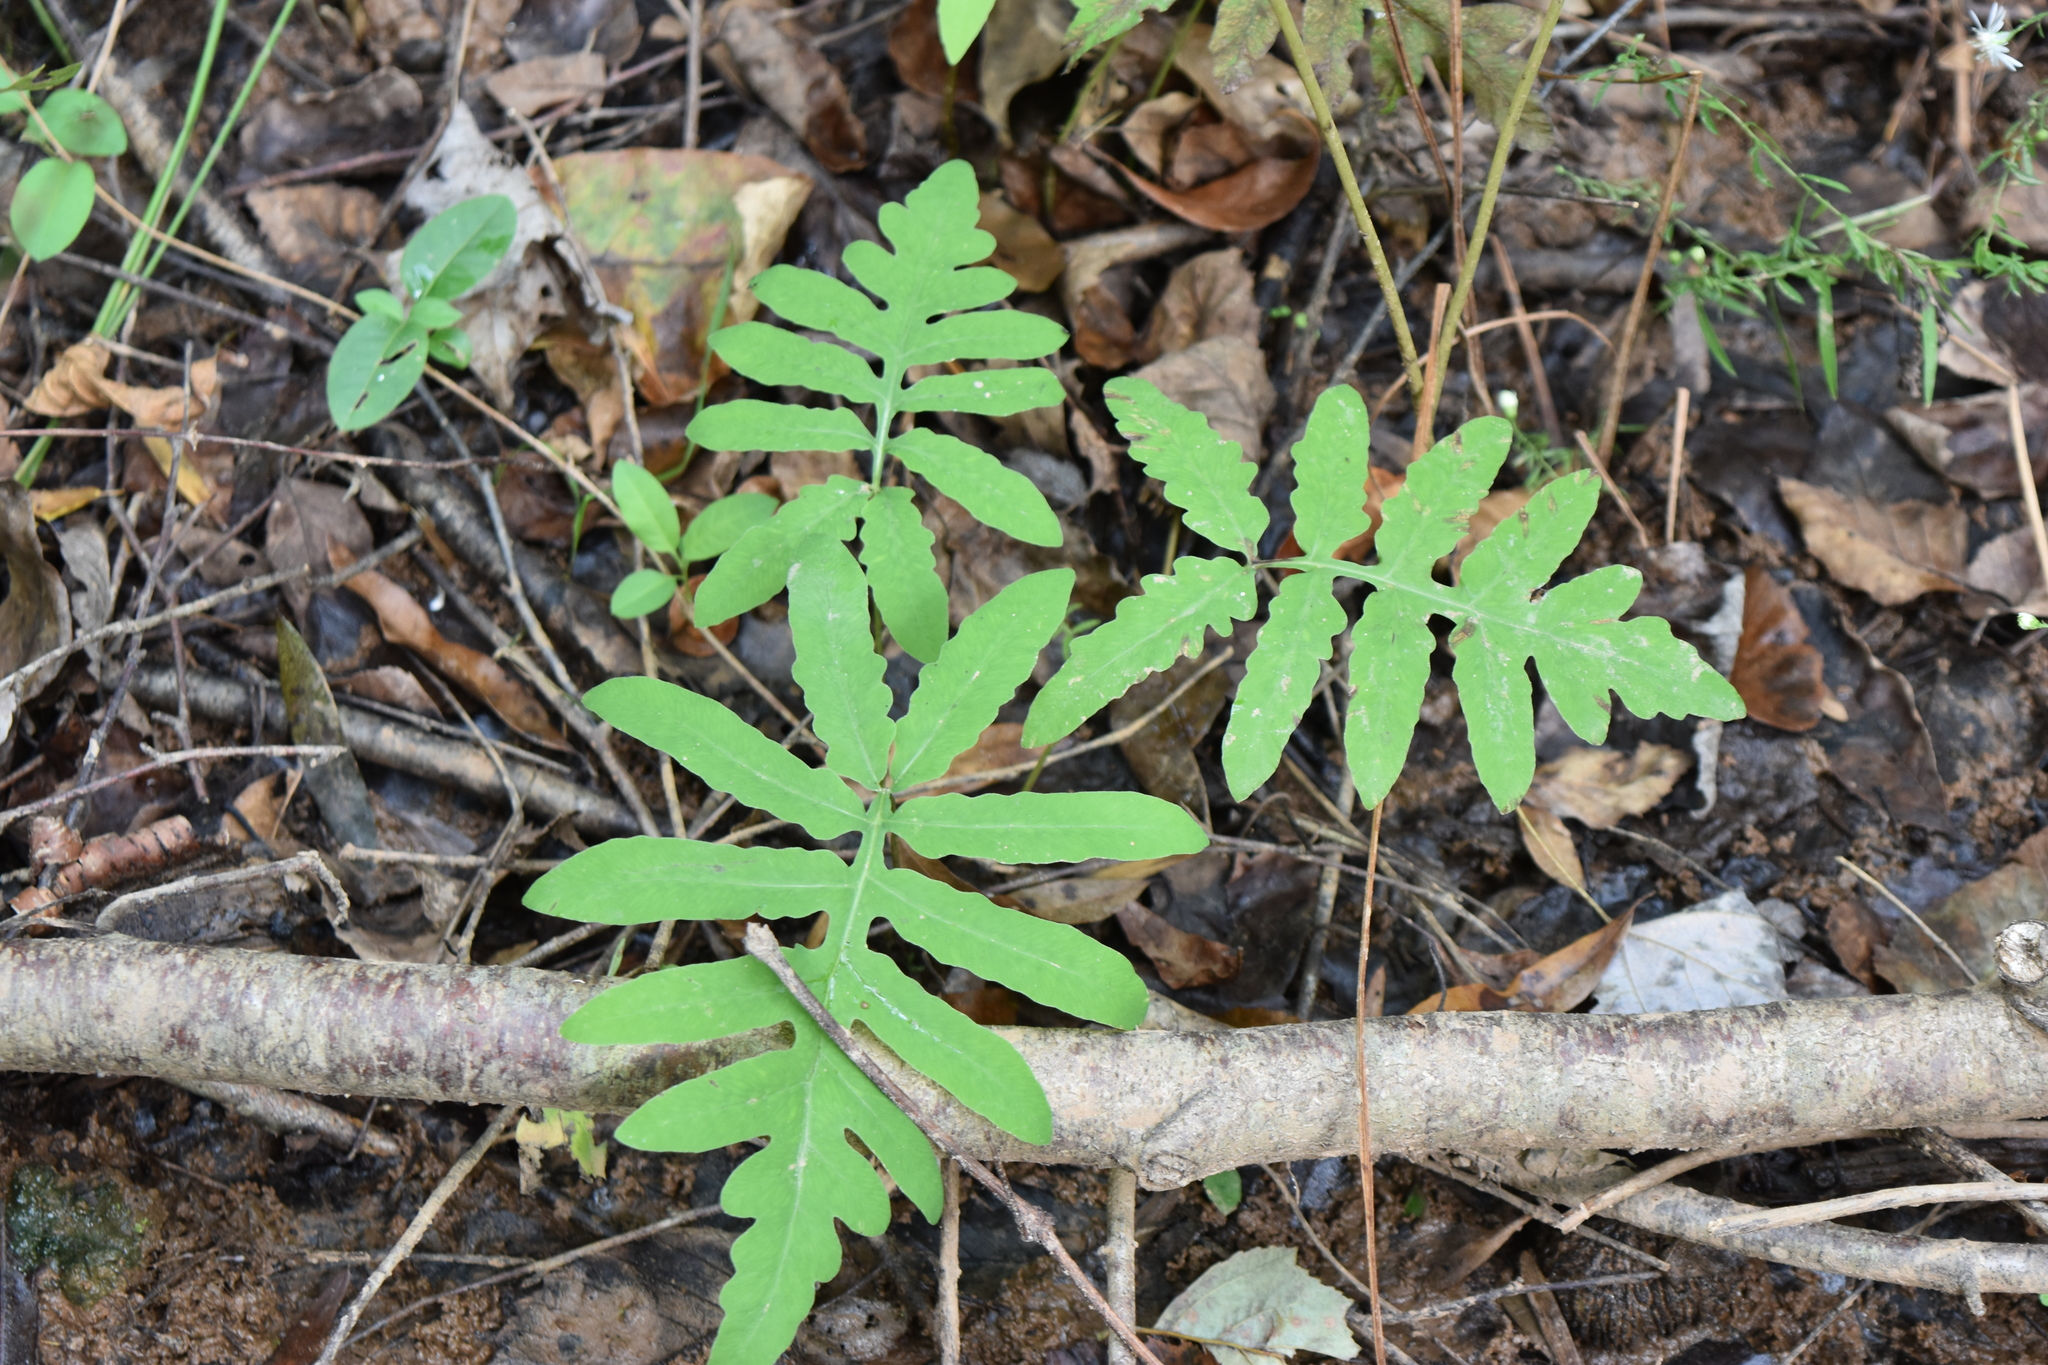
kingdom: Plantae
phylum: Tracheophyta
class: Polypodiopsida
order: Polypodiales
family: Onocleaceae
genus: Onoclea
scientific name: Onoclea sensibilis
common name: Sensitive fern
